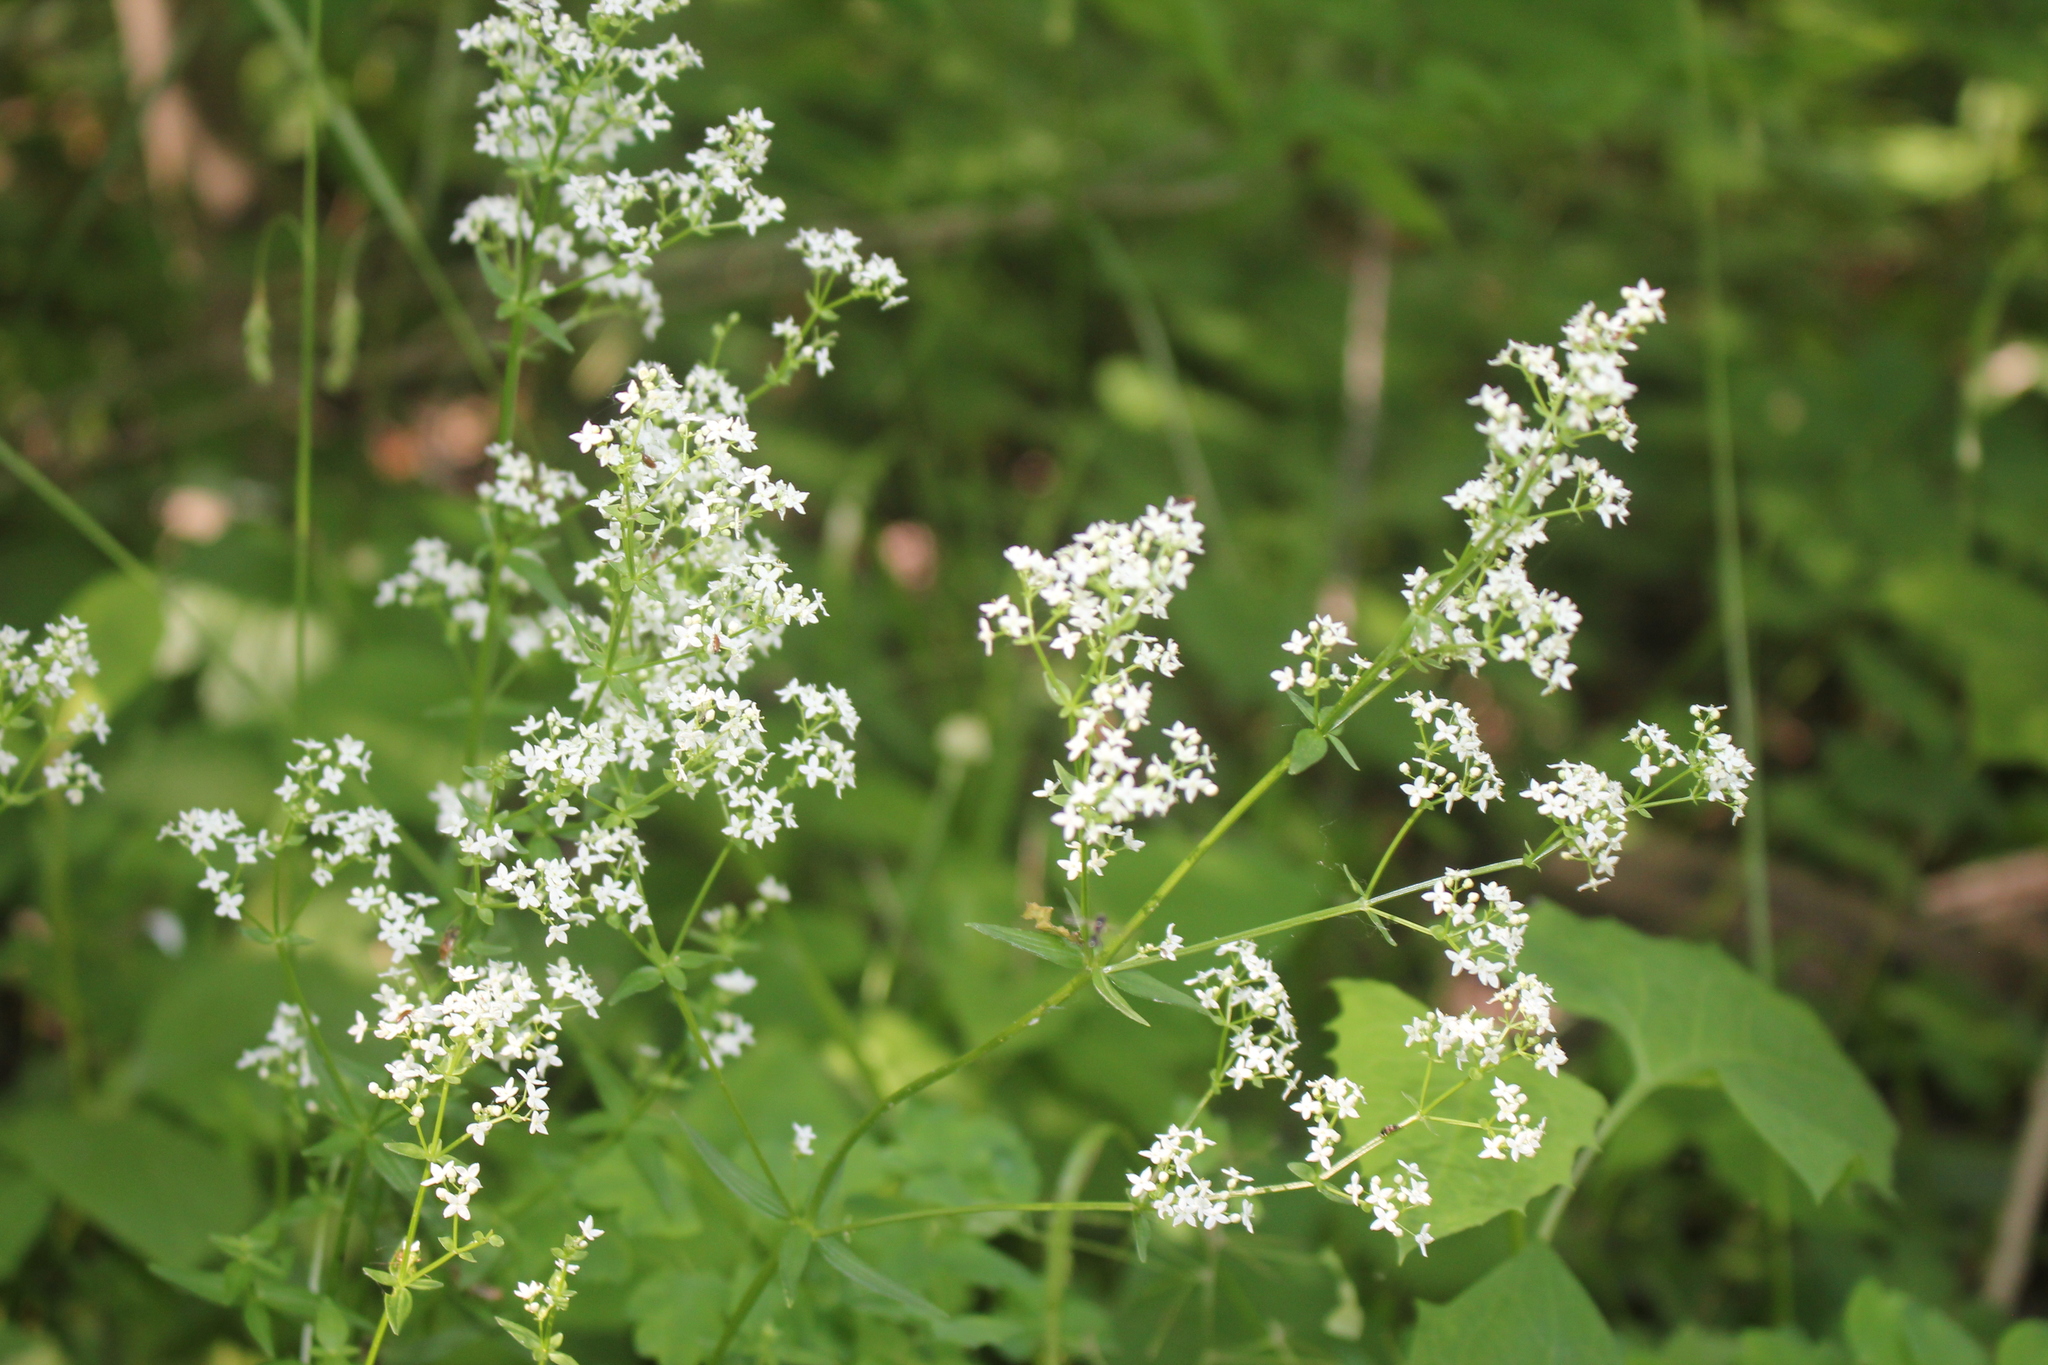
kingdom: Plantae
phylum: Tracheophyta
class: Magnoliopsida
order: Gentianales
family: Rubiaceae
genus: Galium
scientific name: Galium boreale
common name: Northern bedstraw
